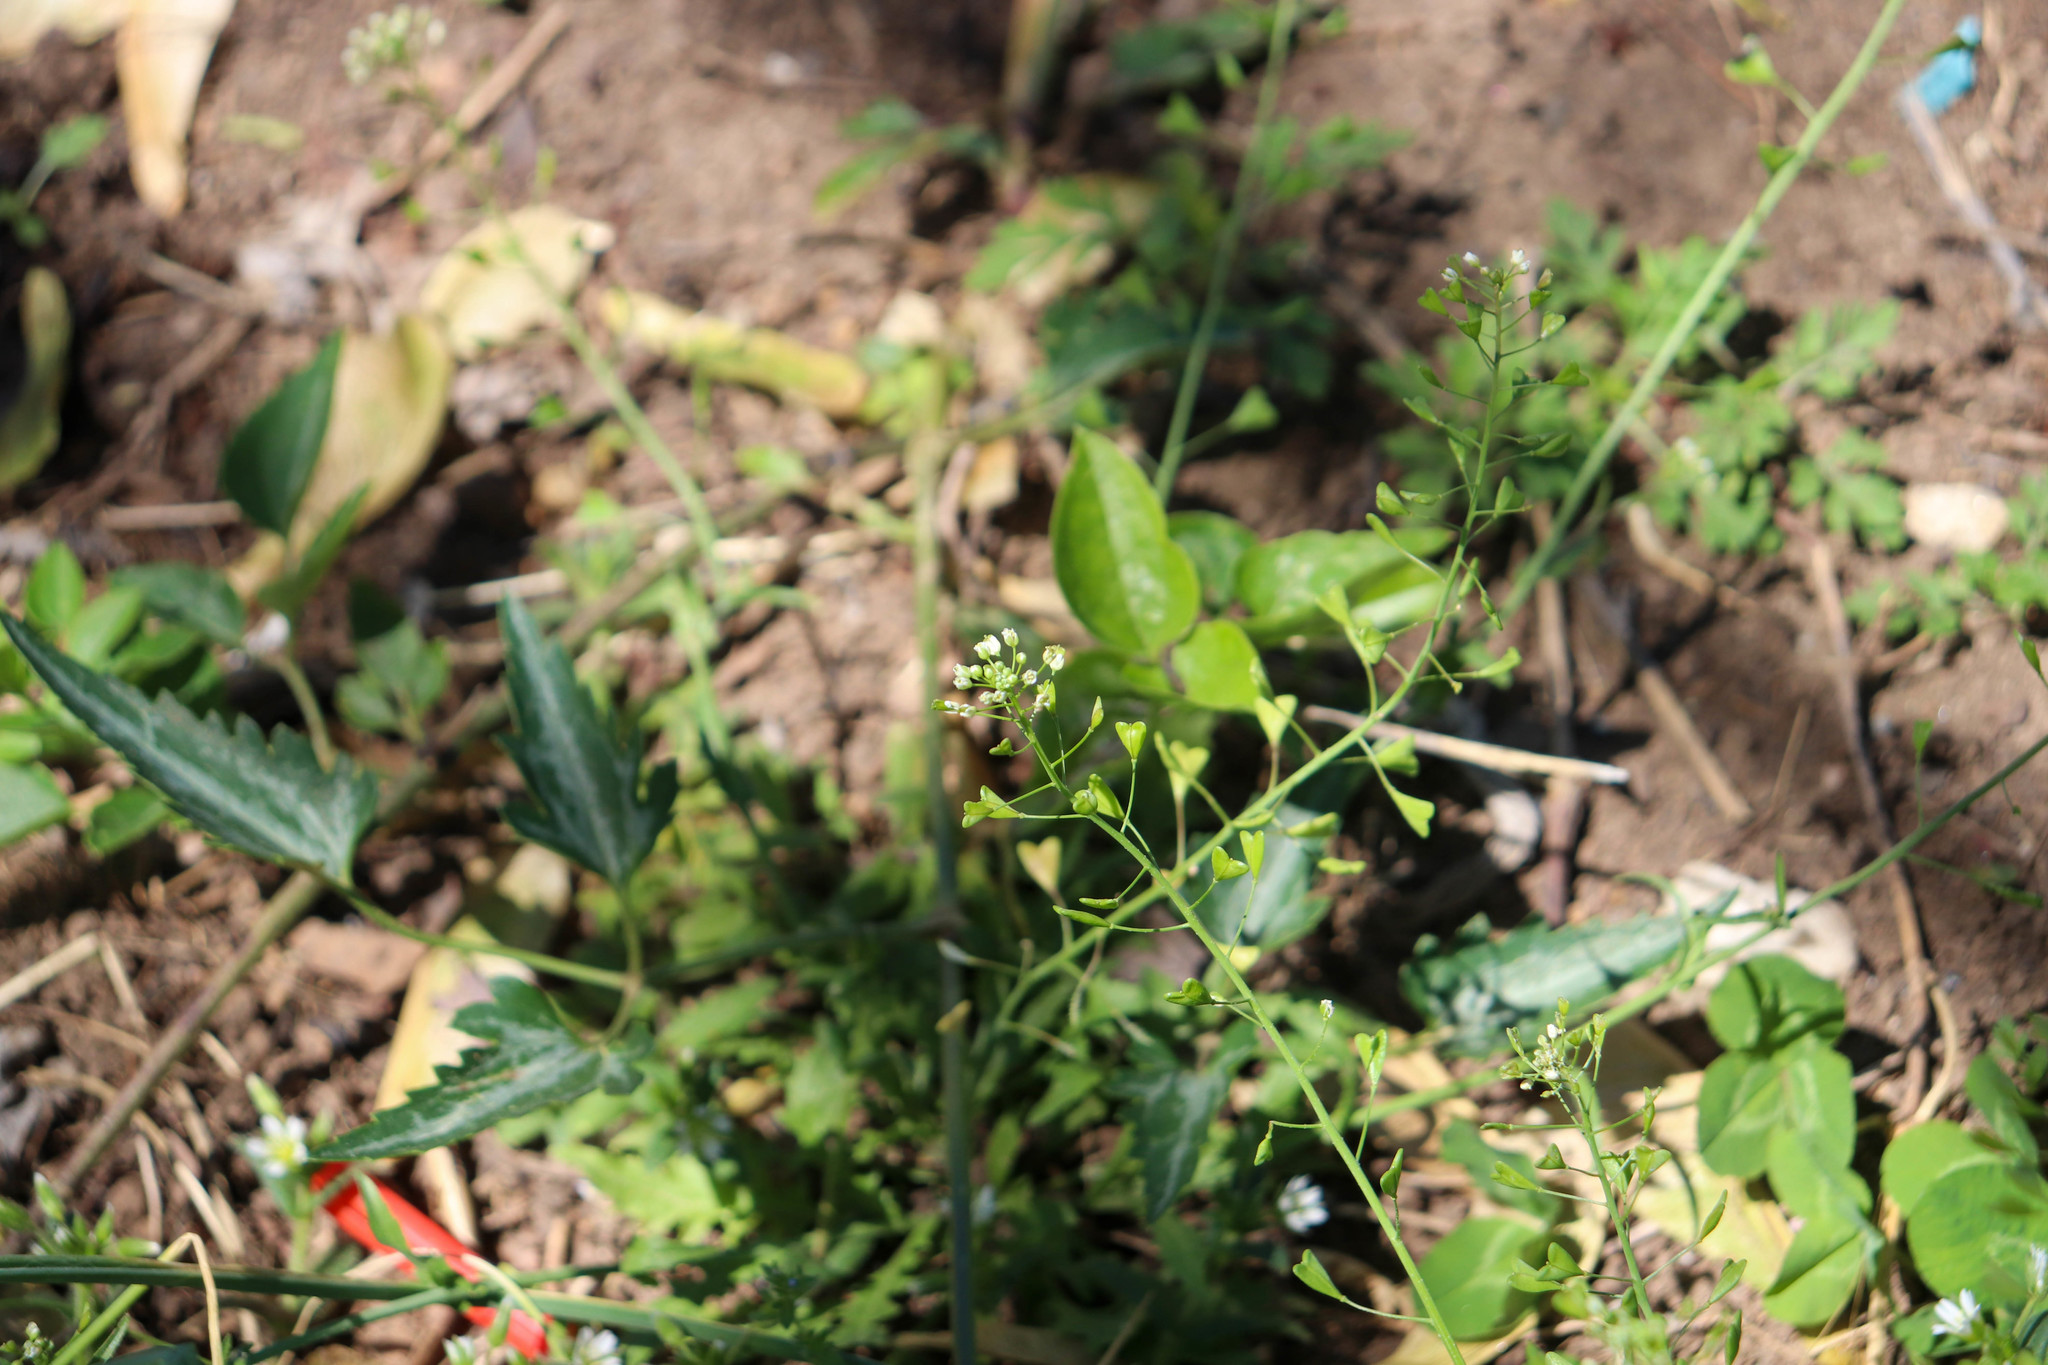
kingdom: Plantae
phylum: Tracheophyta
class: Magnoliopsida
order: Brassicales
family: Brassicaceae
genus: Capsella
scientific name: Capsella bursa-pastoris
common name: Shepherd's purse
